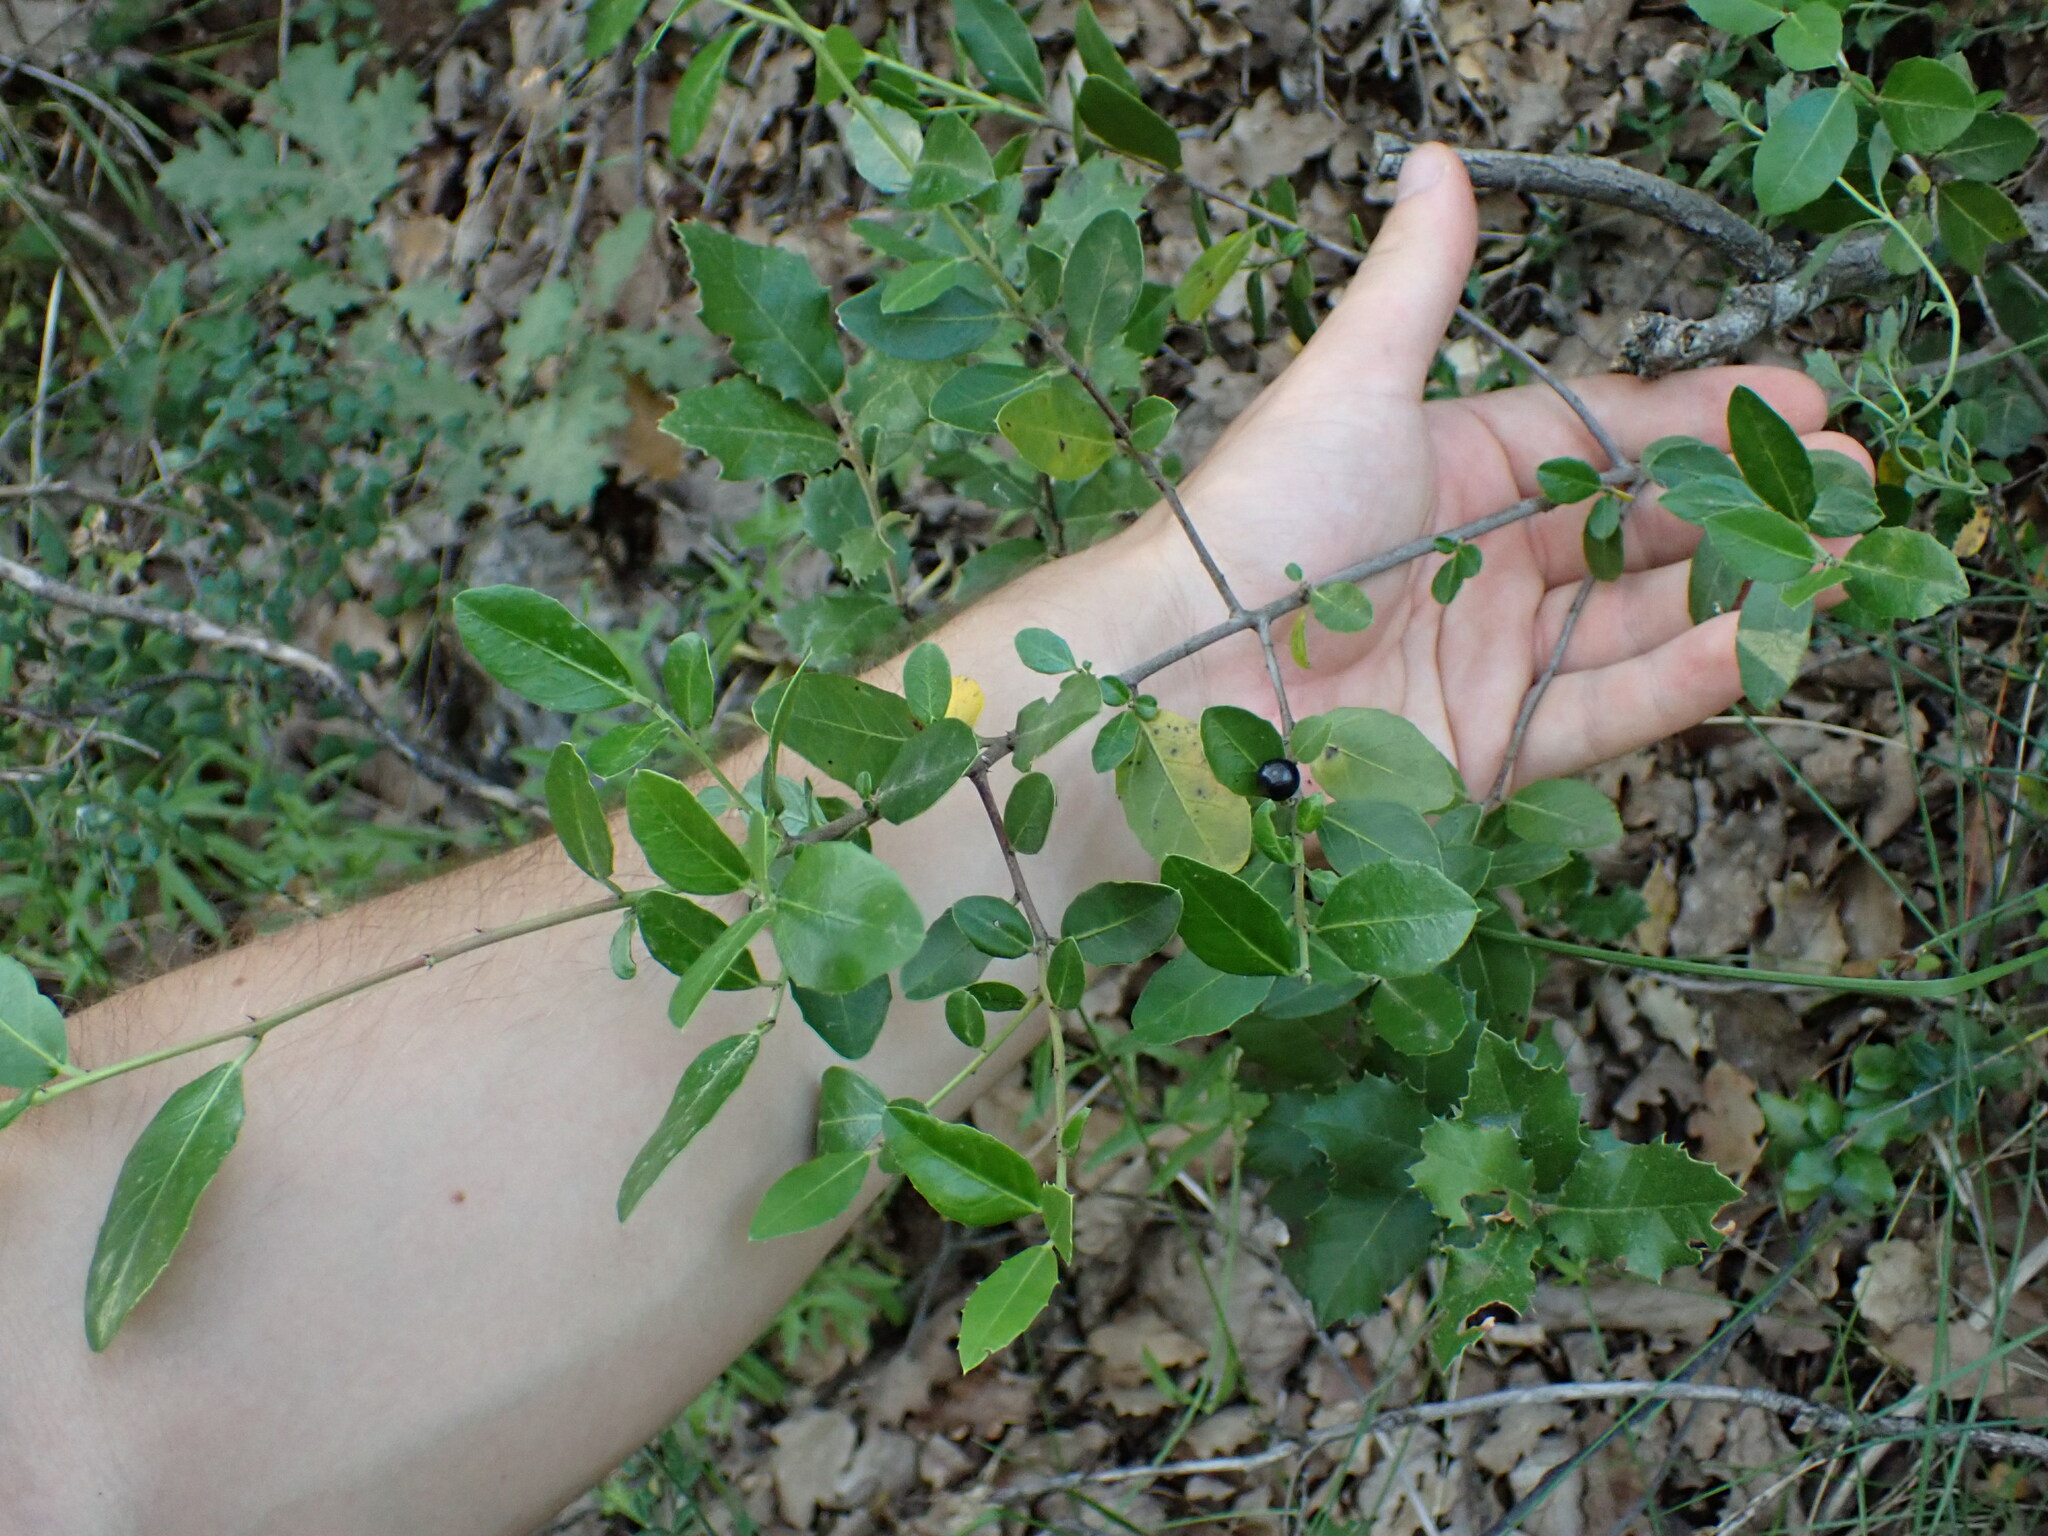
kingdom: Plantae
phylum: Tracheophyta
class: Magnoliopsida
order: Rosales
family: Rhamnaceae
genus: Rhamnus
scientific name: Rhamnus alaternus
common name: Mediterranean buckthorn
